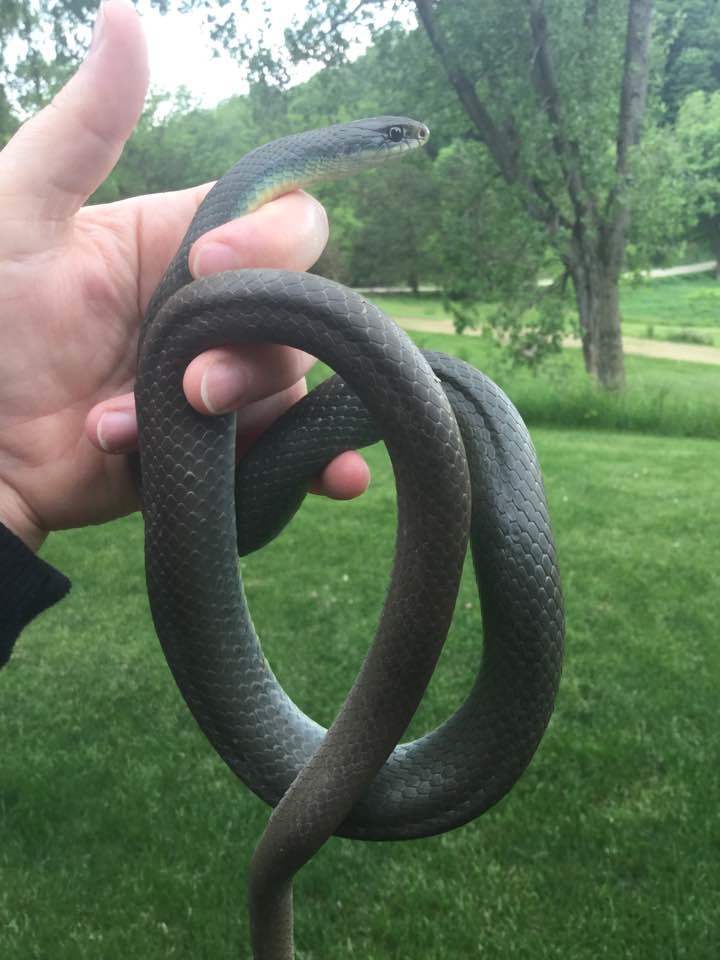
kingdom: Animalia
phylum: Chordata
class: Squamata
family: Colubridae
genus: Coluber
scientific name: Coluber constrictor
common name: Eastern racer
